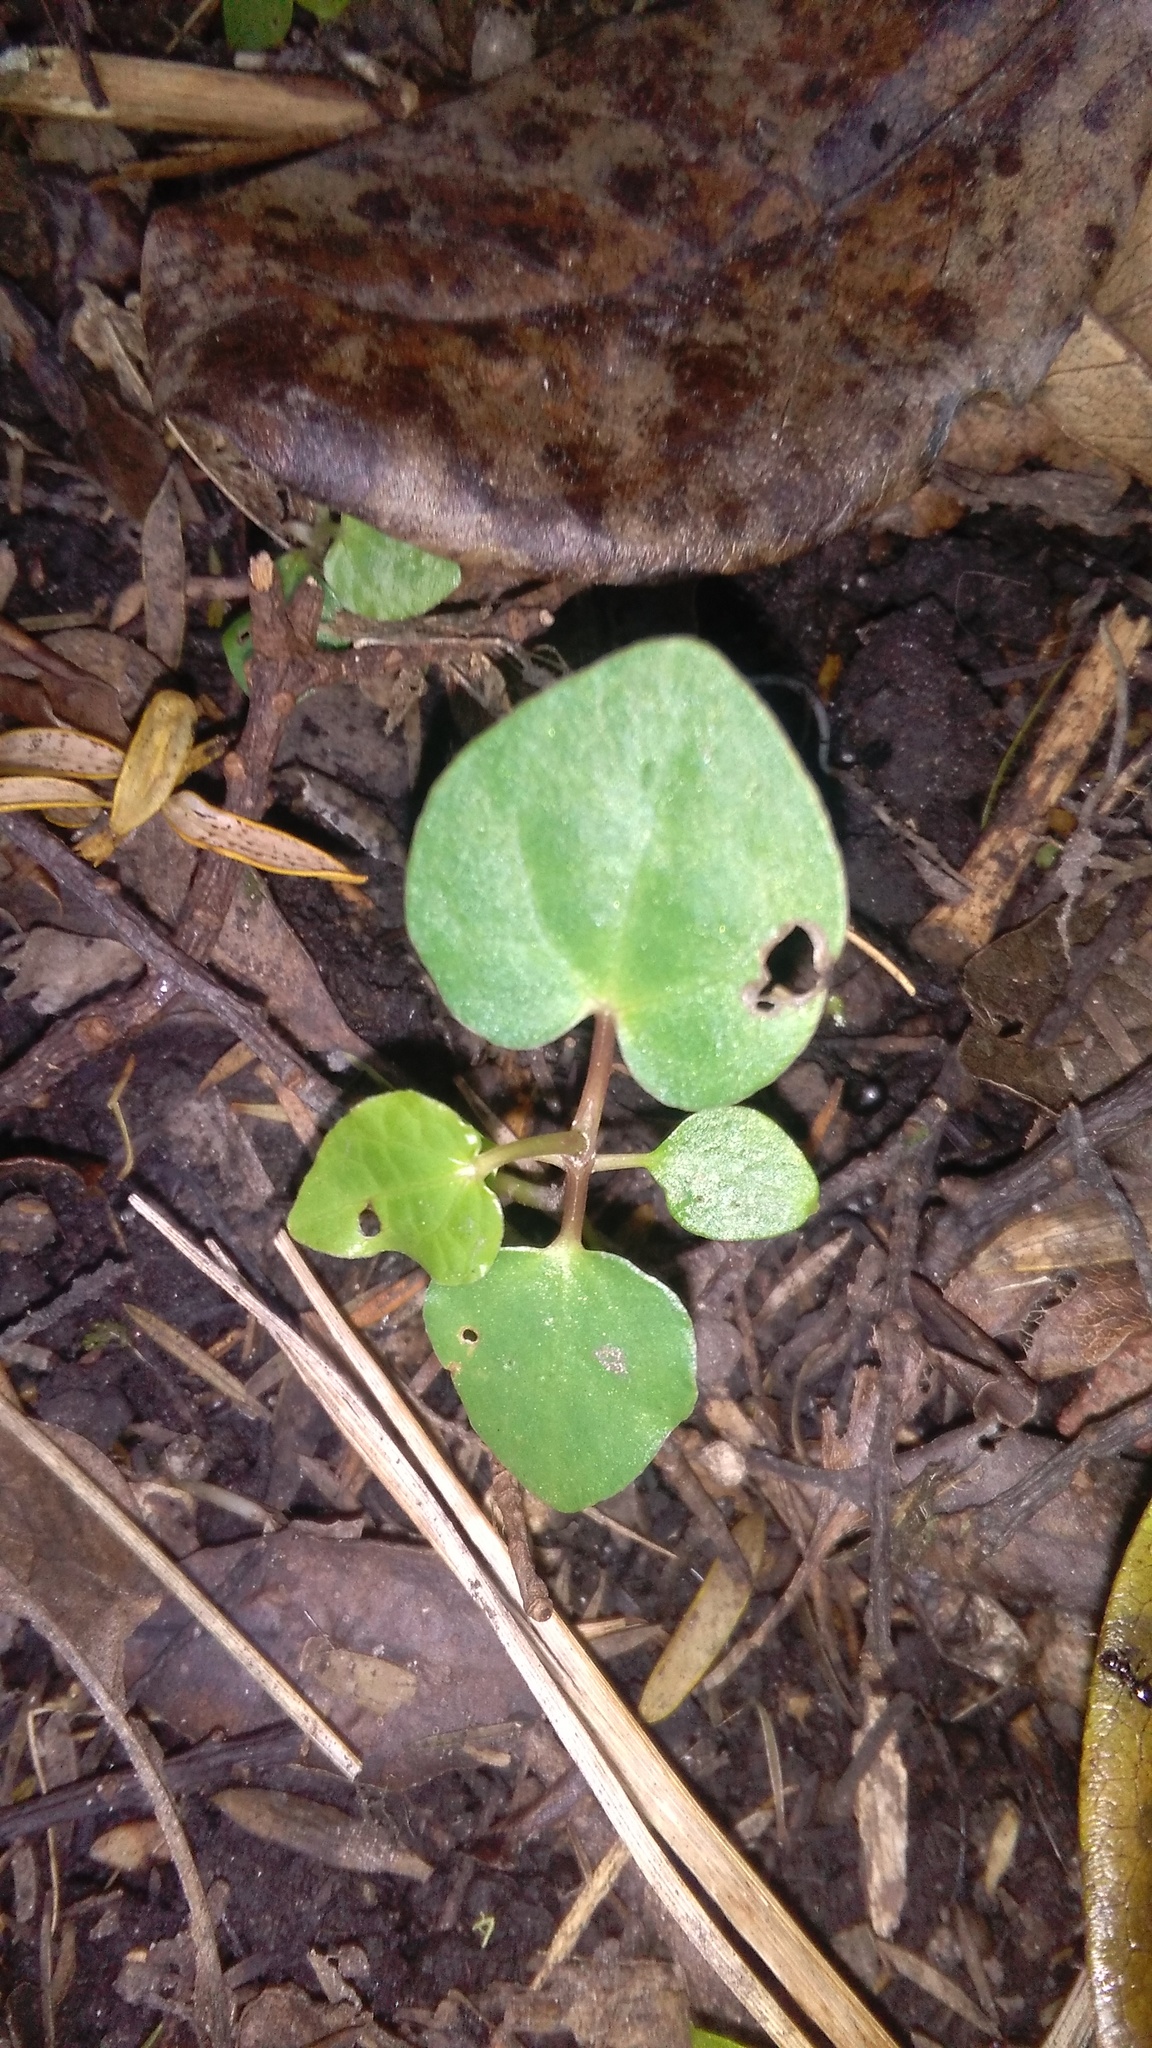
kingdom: Plantae
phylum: Tracheophyta
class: Magnoliopsida
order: Piperales
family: Piperaceae
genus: Macropiper
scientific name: Macropiper excelsum
